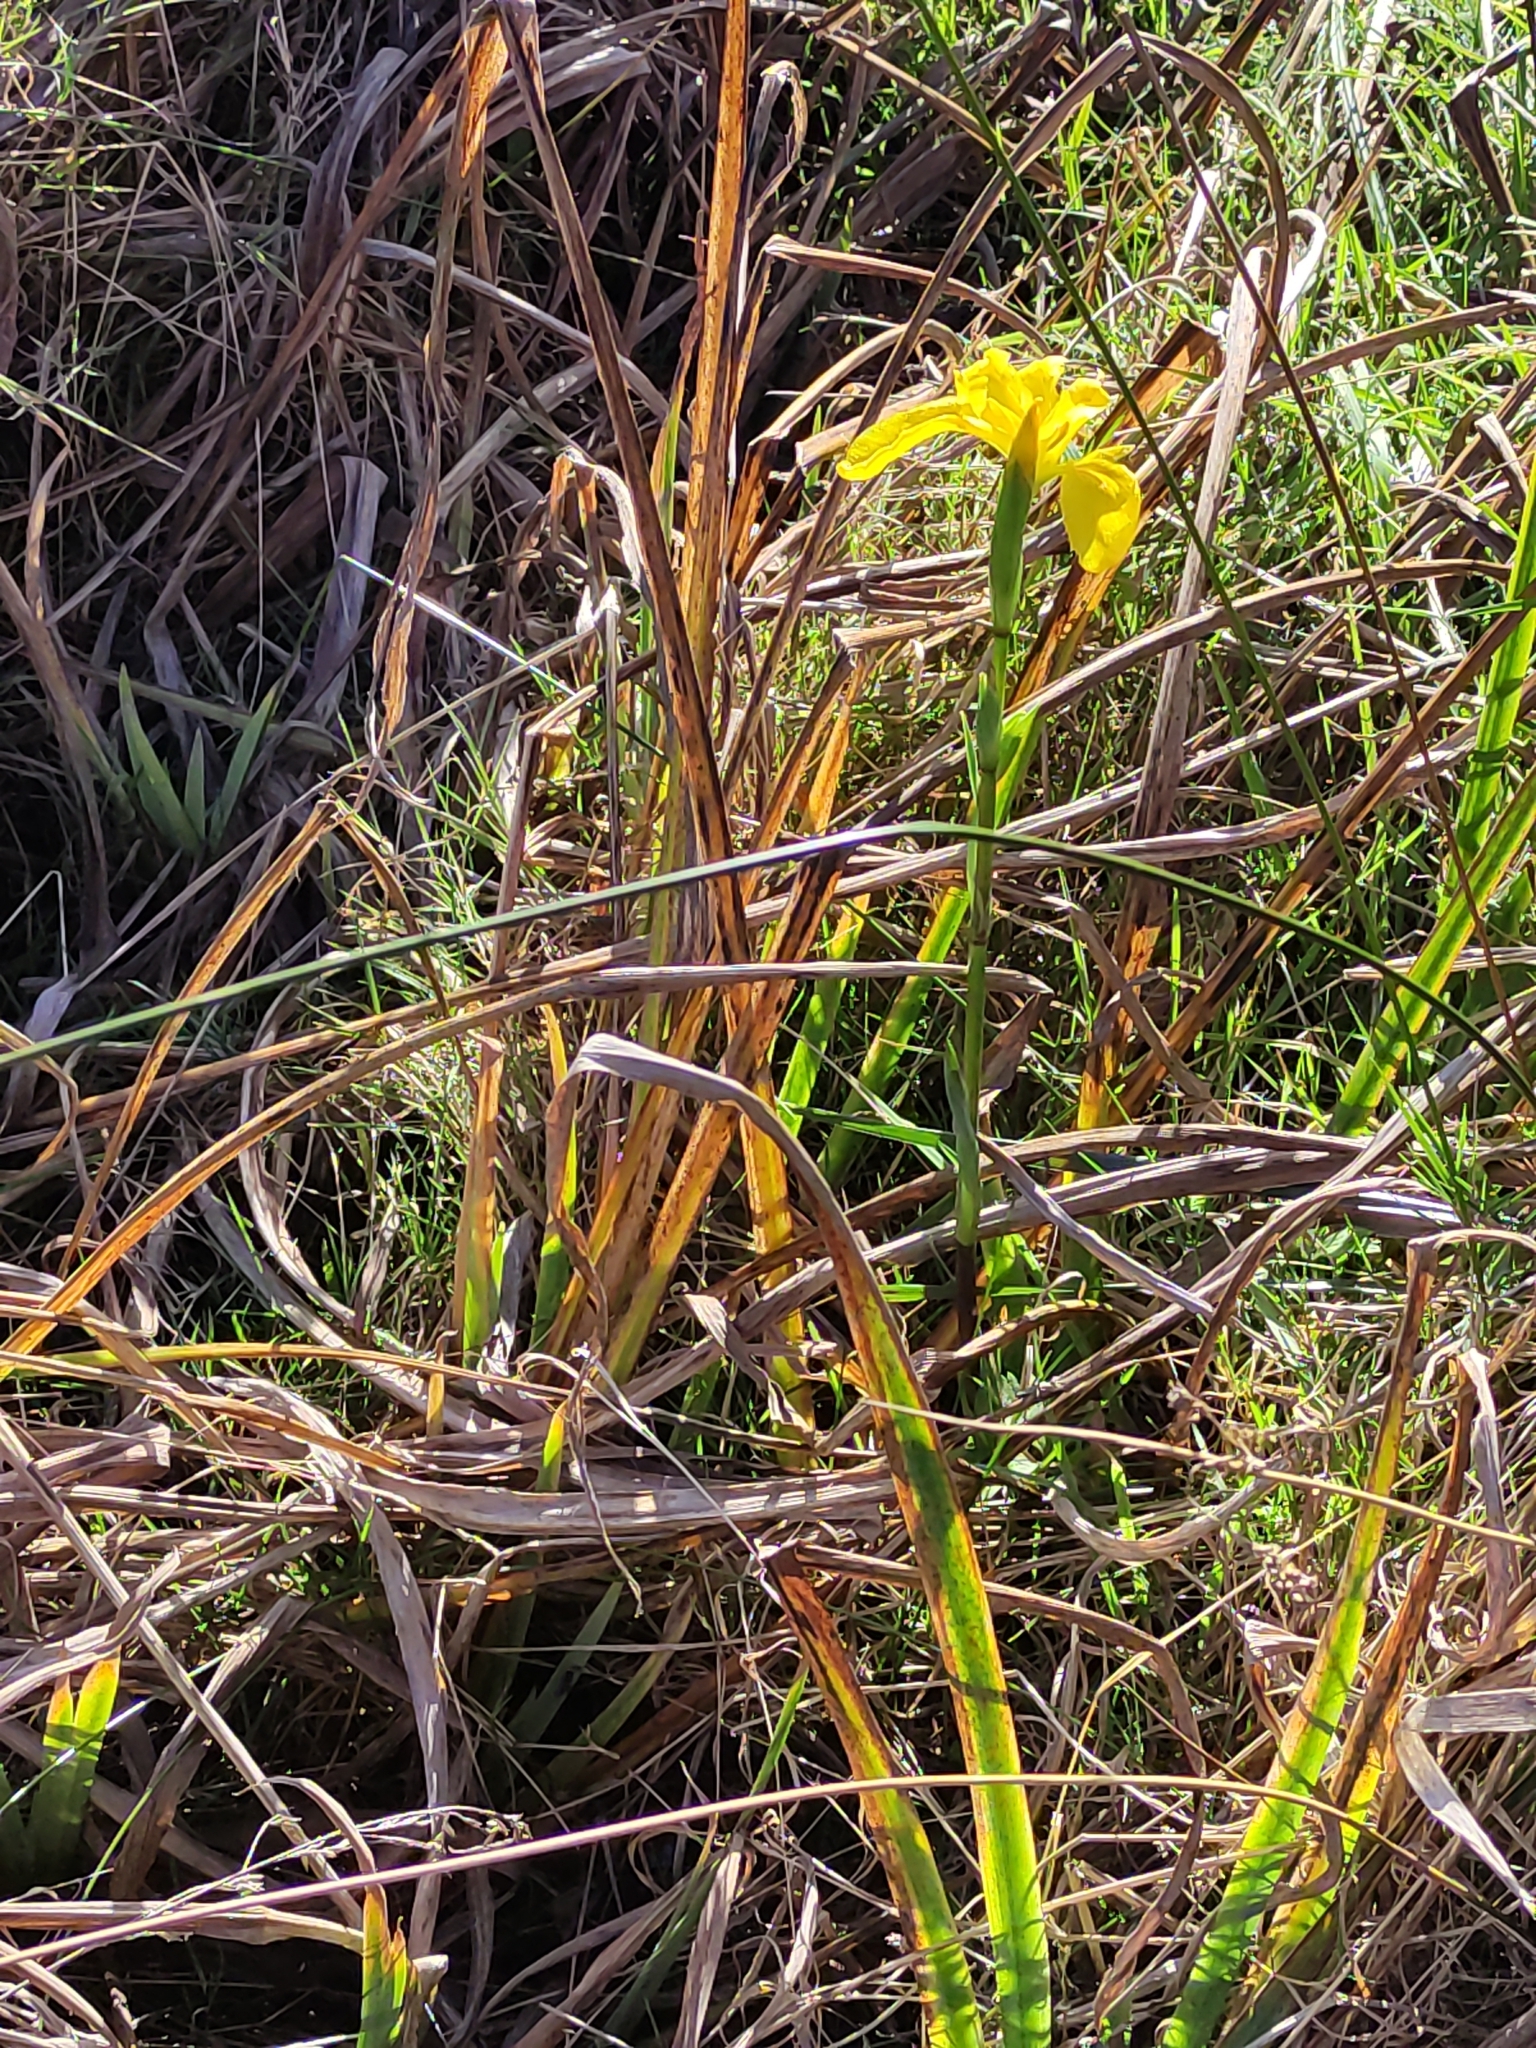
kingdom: Plantae
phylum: Tracheophyta
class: Liliopsida
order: Asparagales
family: Iridaceae
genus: Iris
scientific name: Iris pseudacorus
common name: Yellow flag
